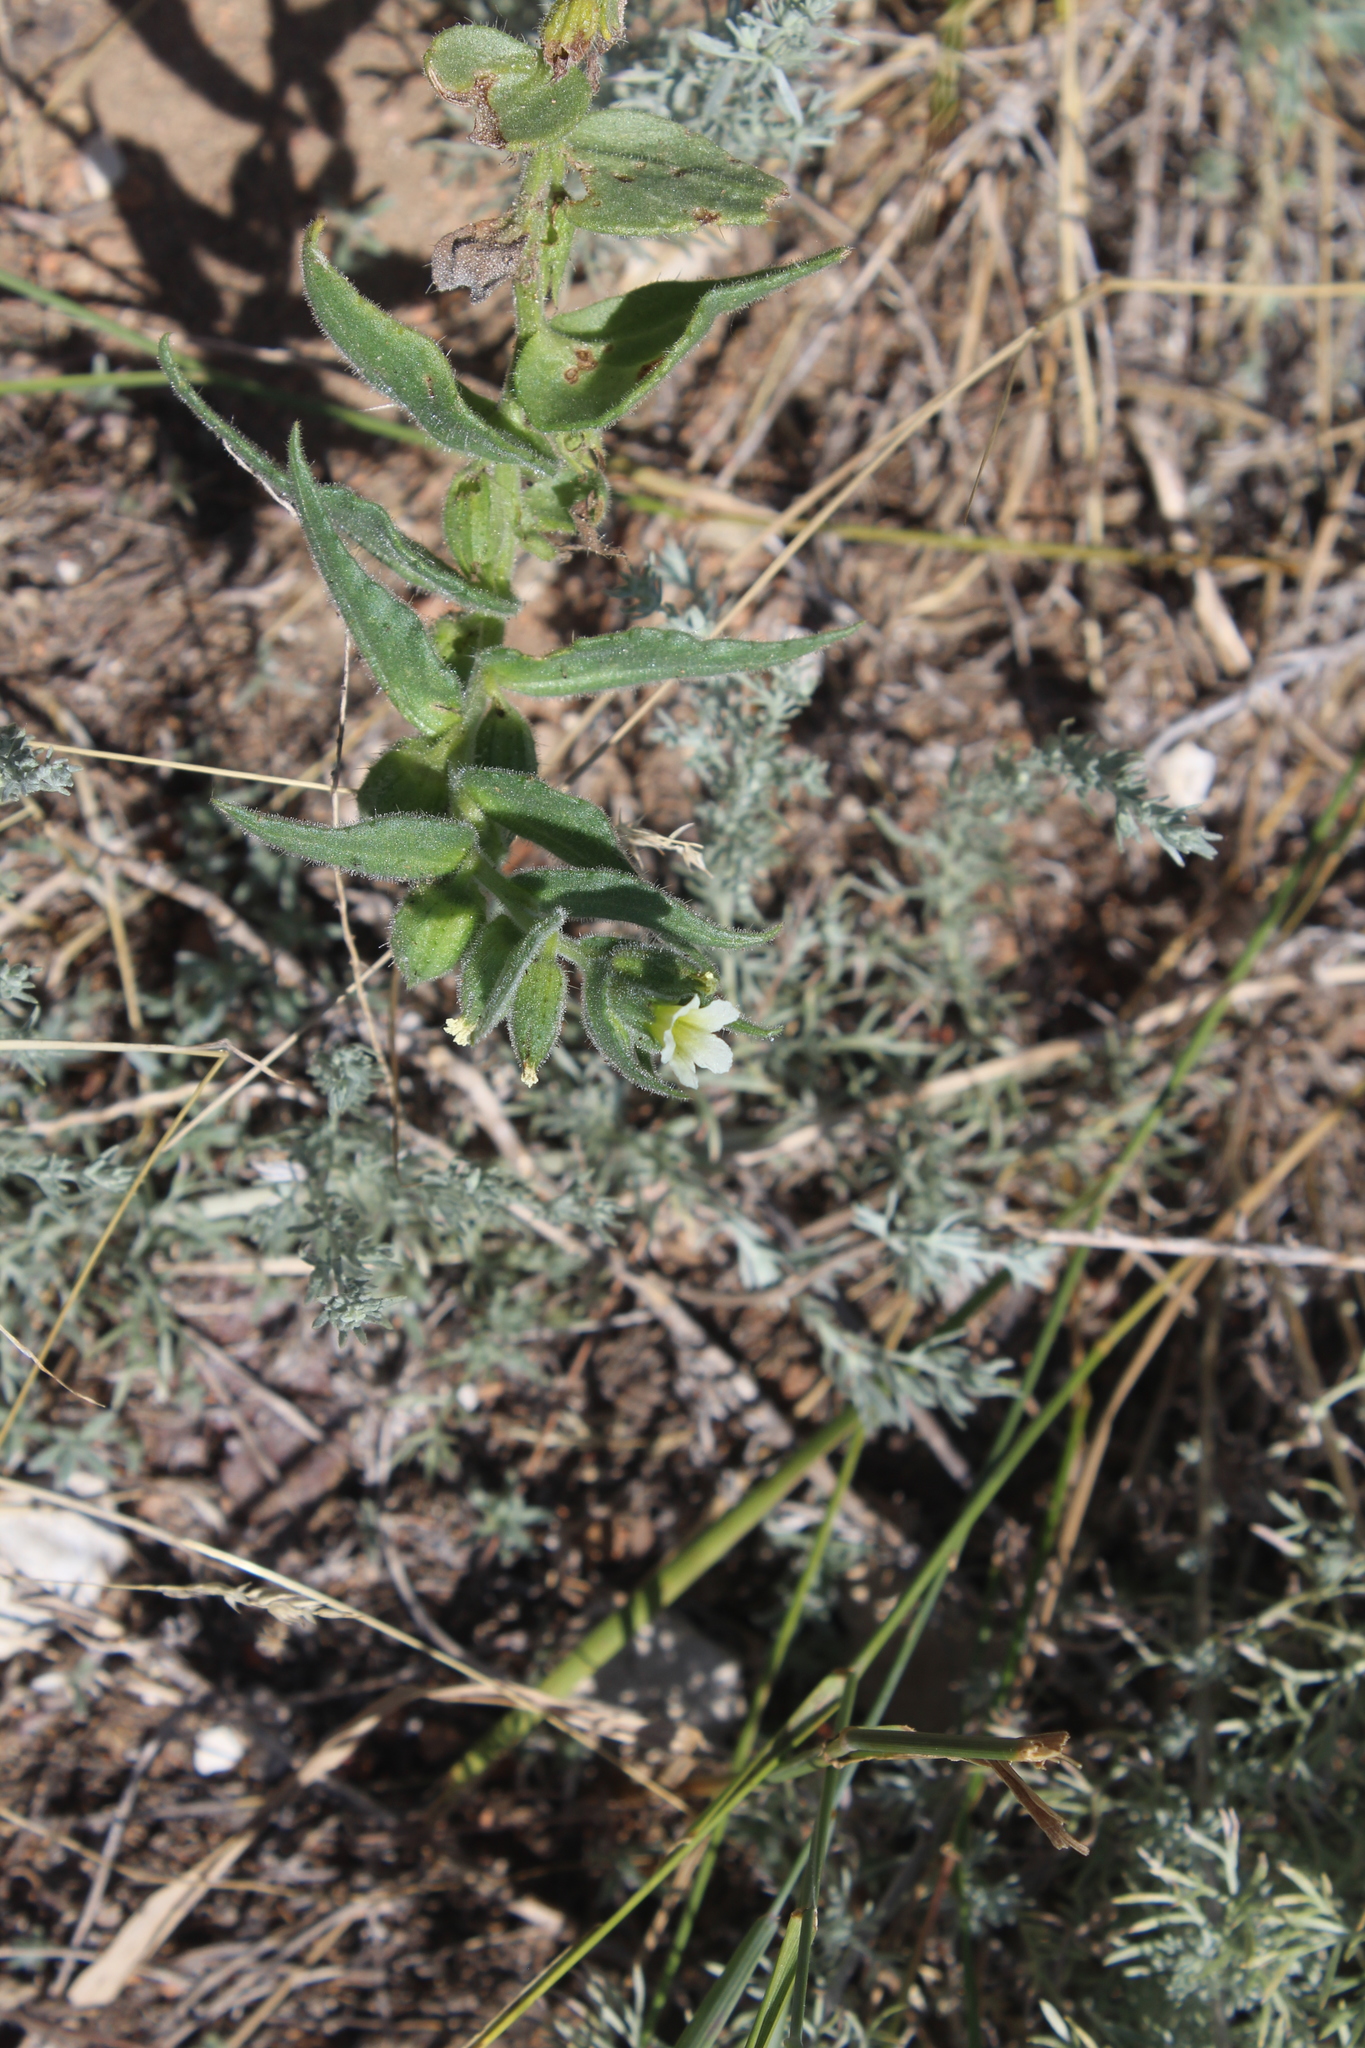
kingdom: Plantae
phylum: Tracheophyta
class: Magnoliopsida
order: Boraginales
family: Boraginaceae
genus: Nonea
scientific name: Nonea lutea
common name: Yellow nonea
